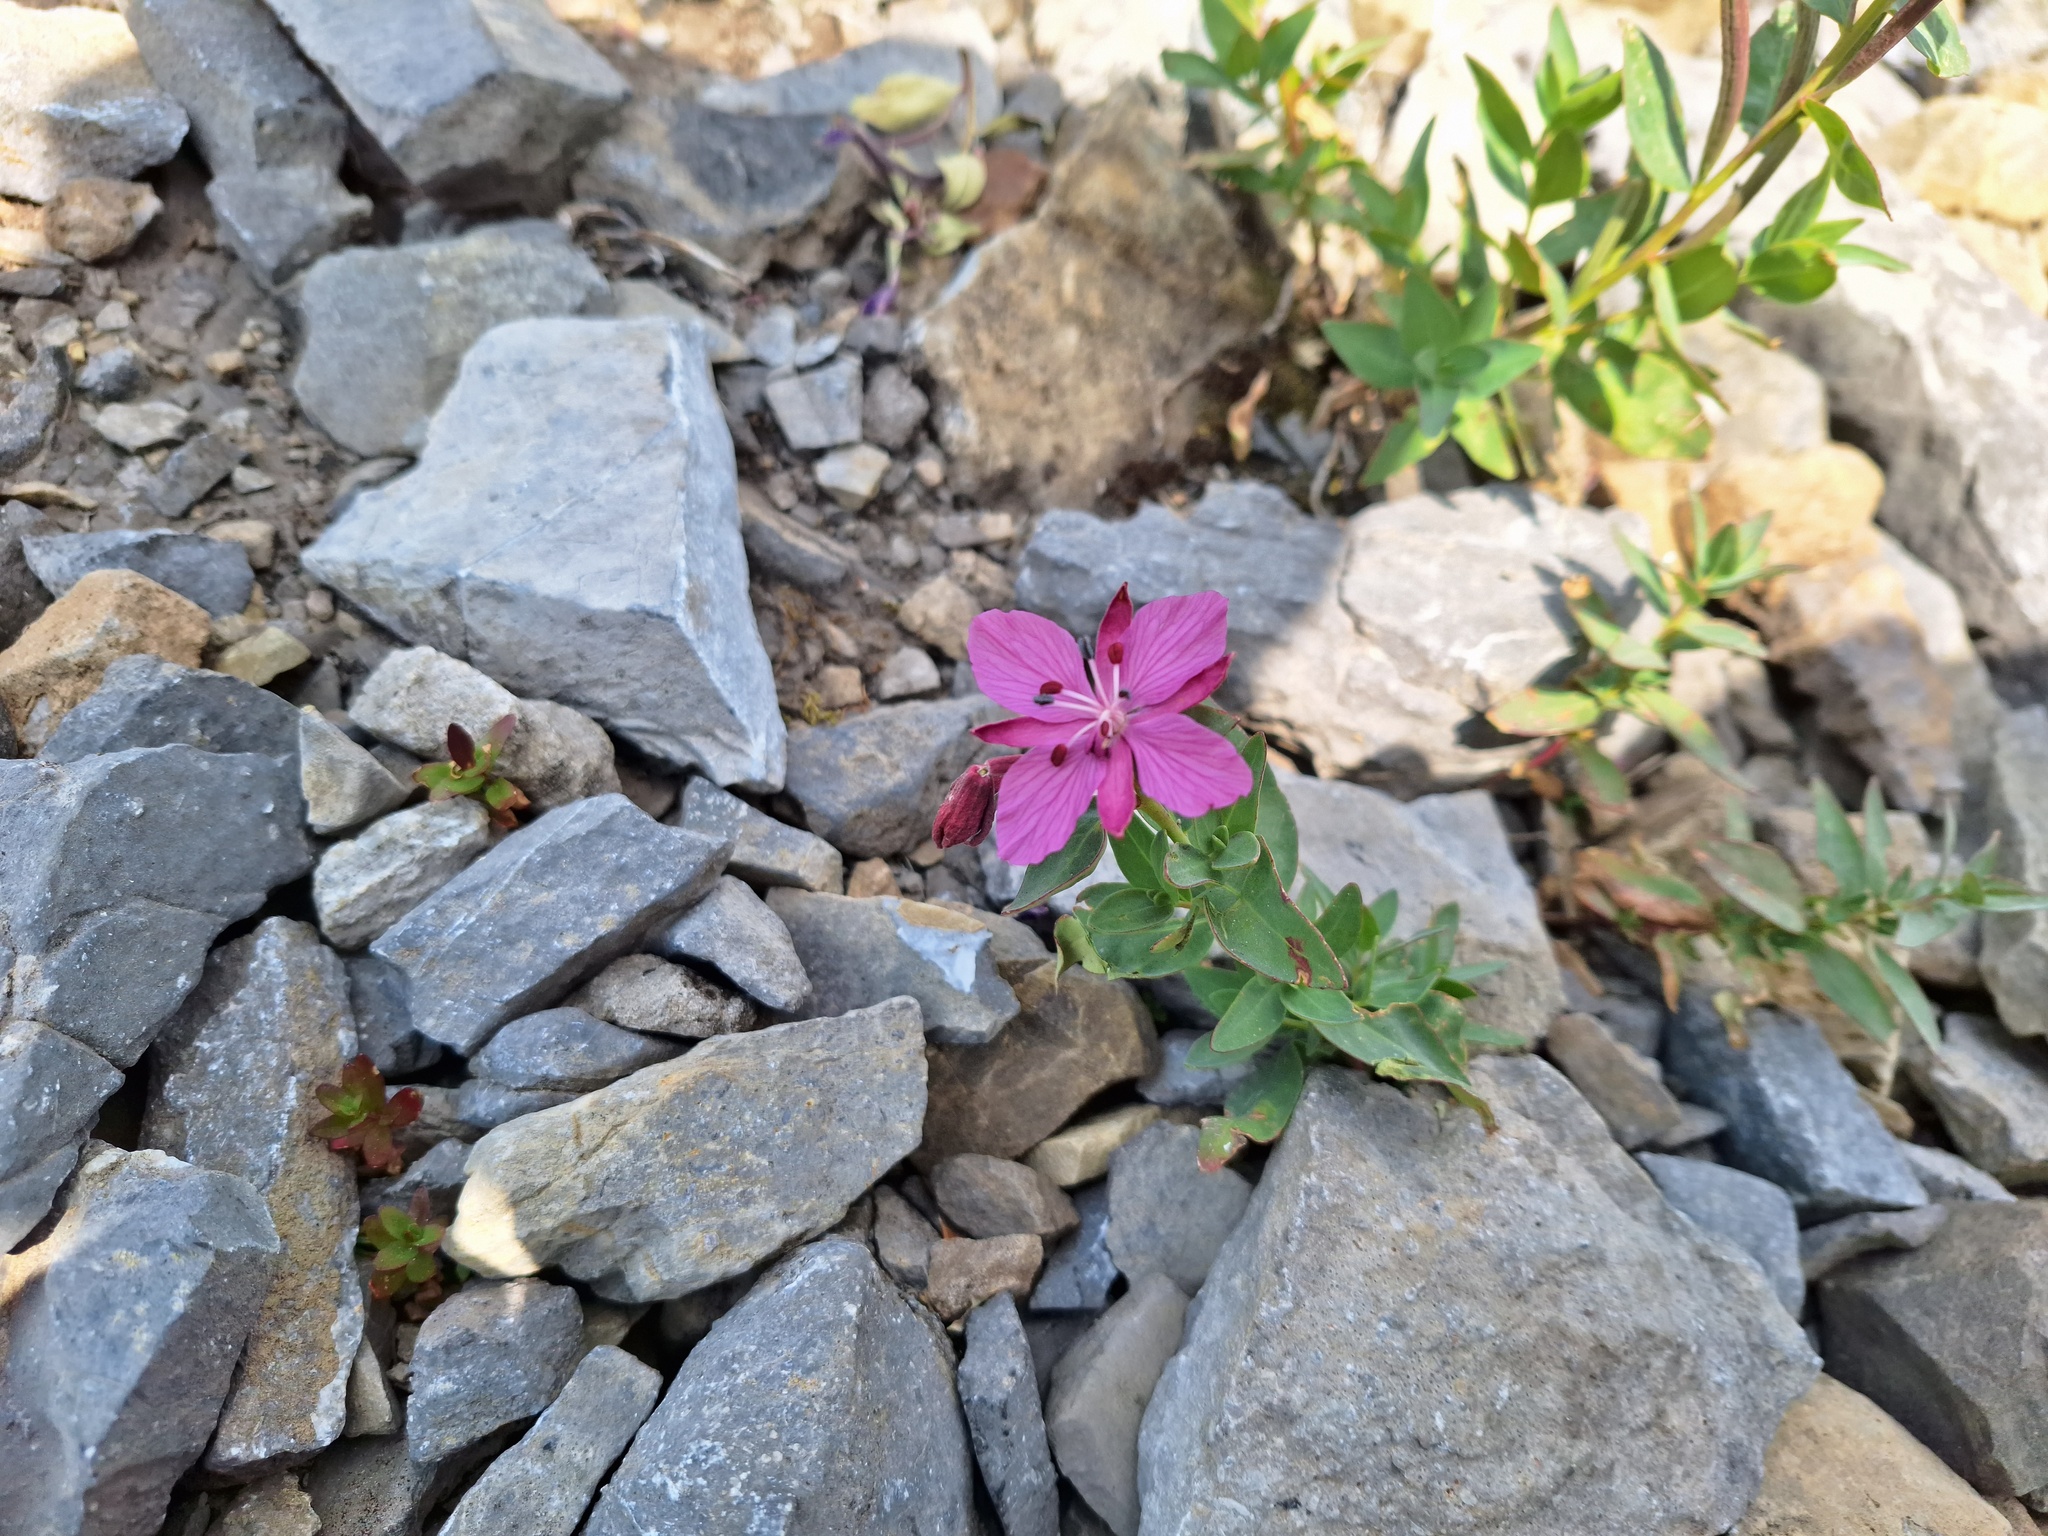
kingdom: Plantae
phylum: Tracheophyta
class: Magnoliopsida
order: Myrtales
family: Onagraceae
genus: Chamaenerion
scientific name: Chamaenerion latifolium
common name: Dwarf fireweed
